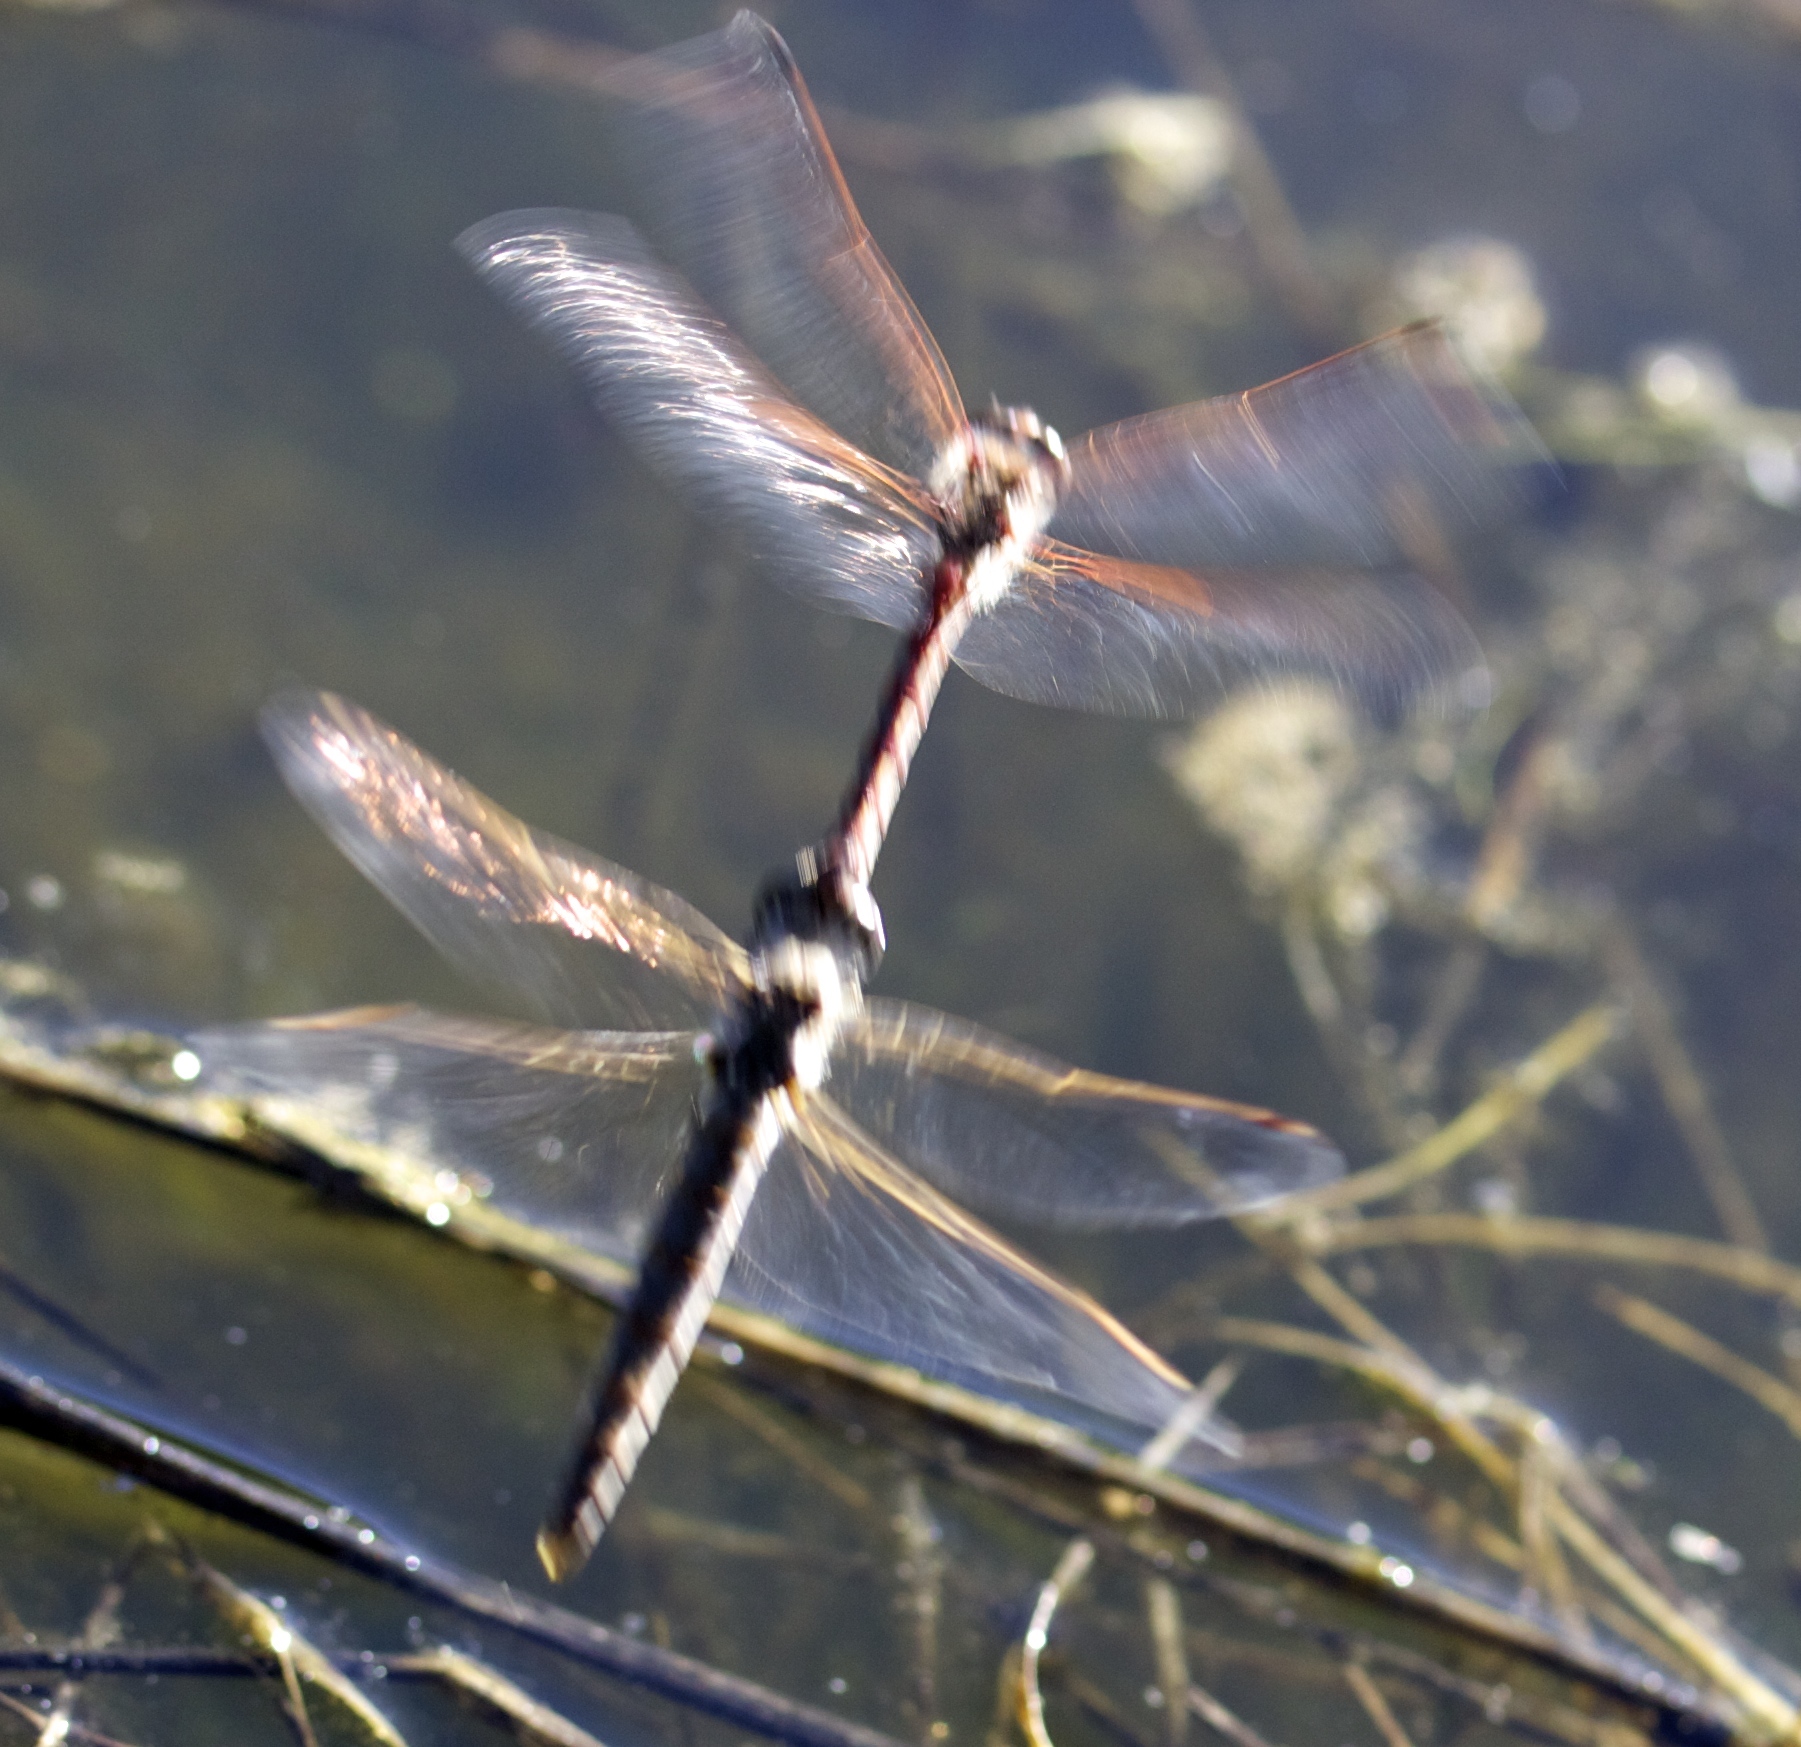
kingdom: Animalia
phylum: Arthropoda
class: Insecta
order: Odonata
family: Libellulidae
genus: Sympetrum
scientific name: Sympetrum corruptum
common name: Variegated meadowhawk
